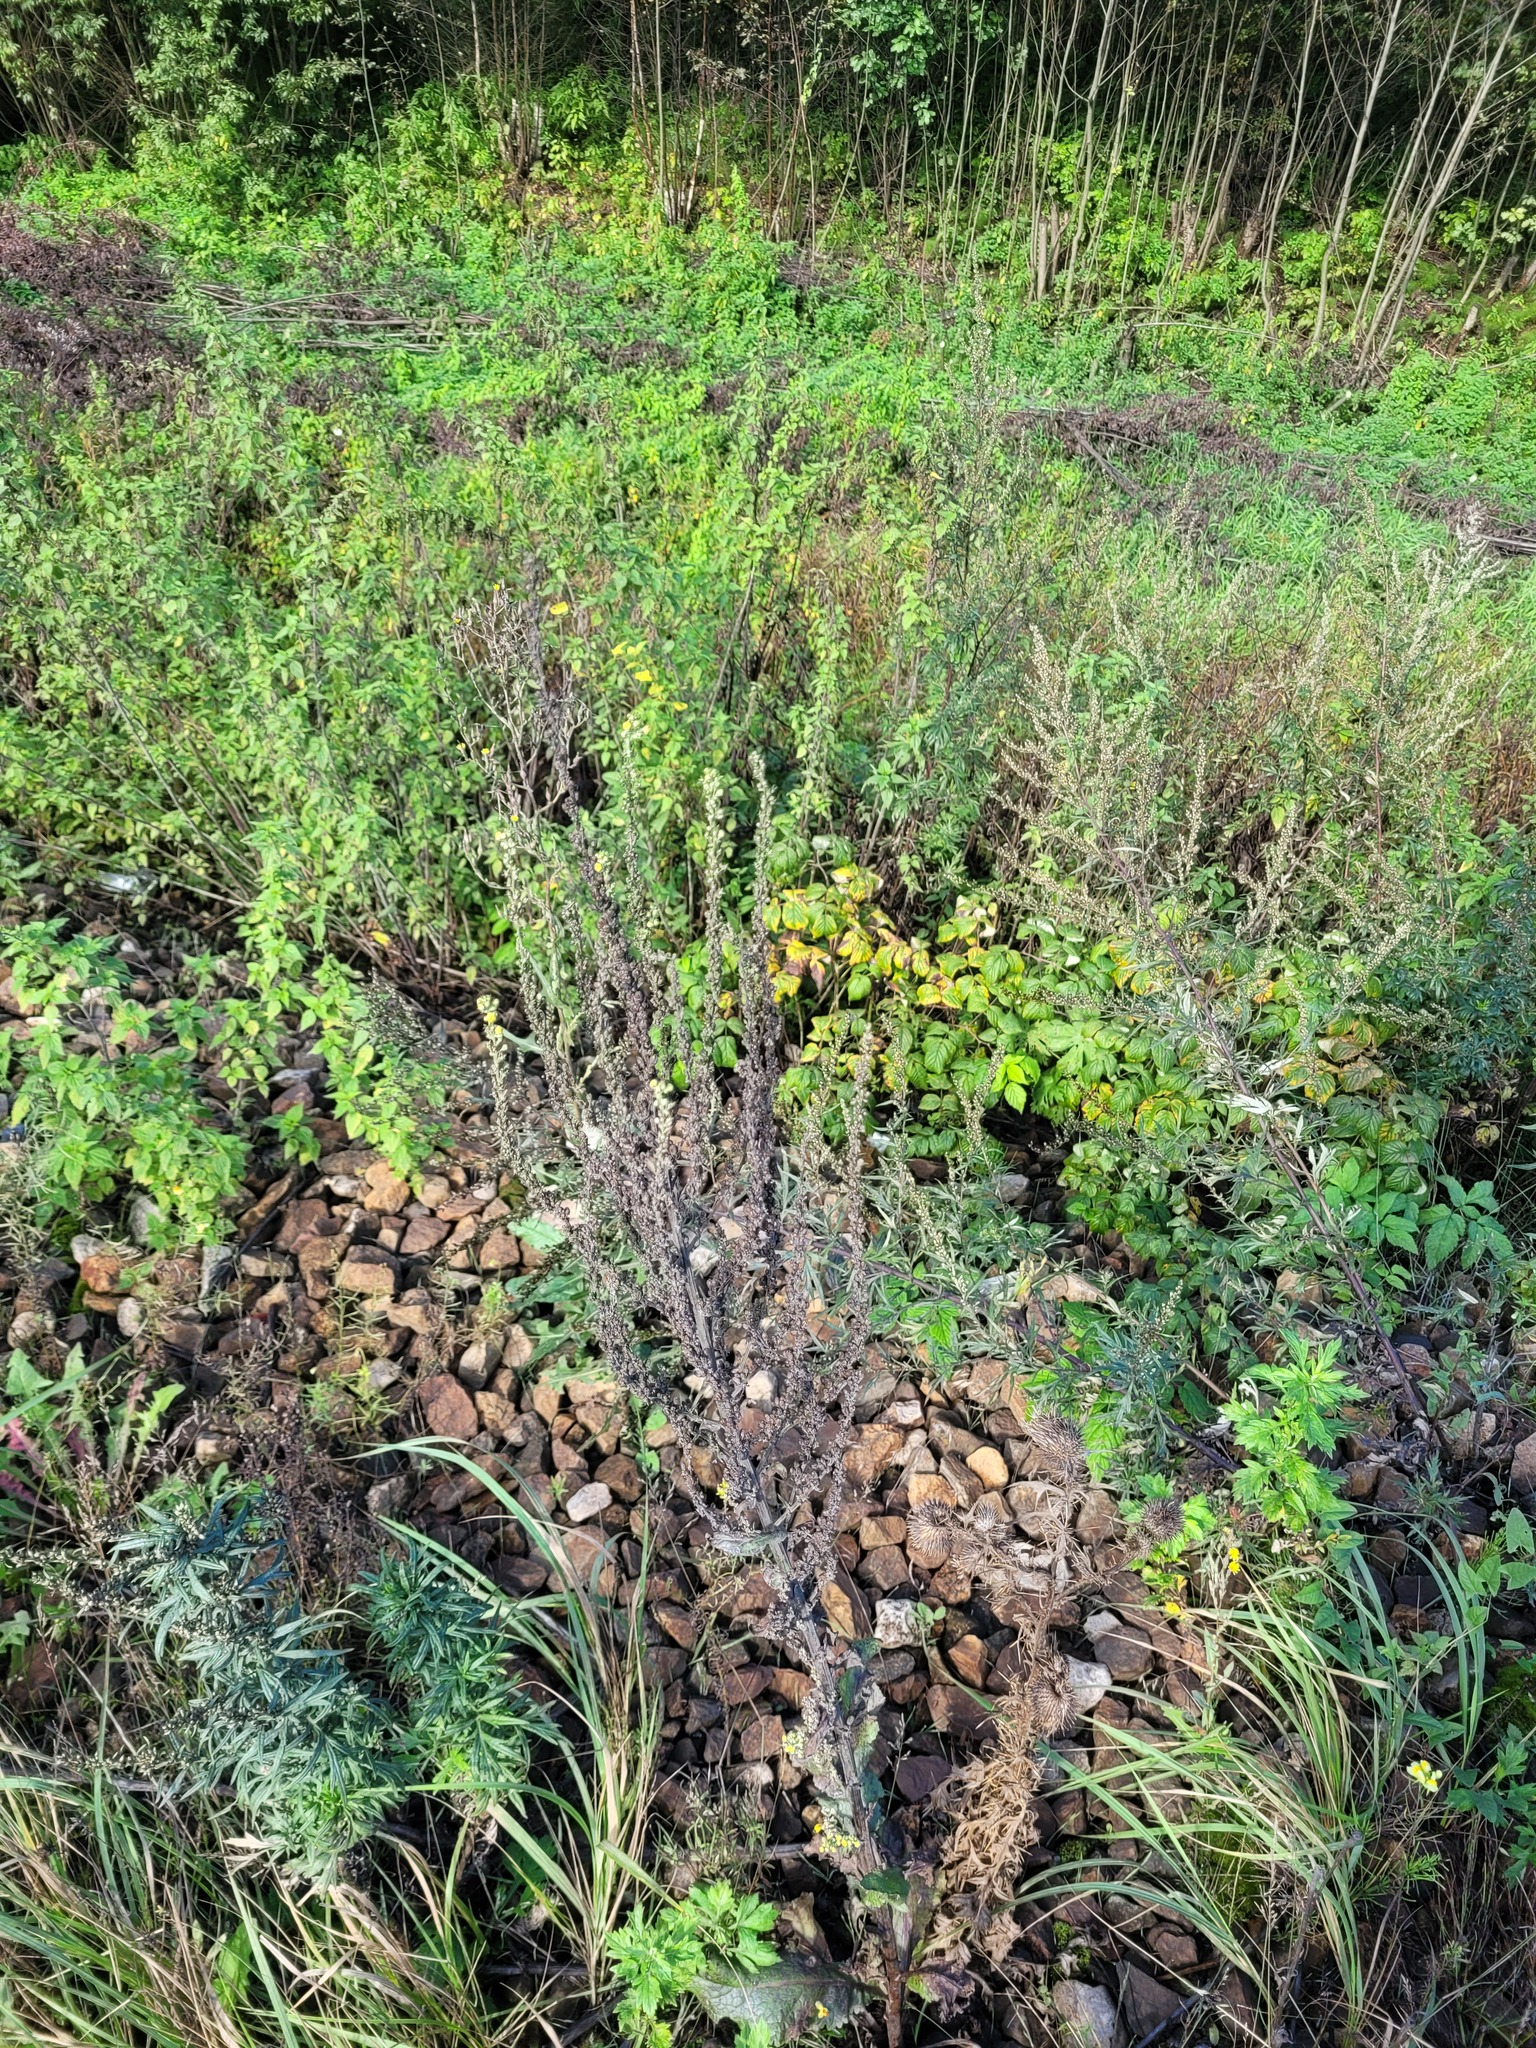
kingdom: Plantae
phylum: Tracheophyta
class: Magnoliopsida
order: Lamiales
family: Scrophulariaceae
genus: Verbascum
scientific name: Verbascum lychnitis
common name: White mullein
